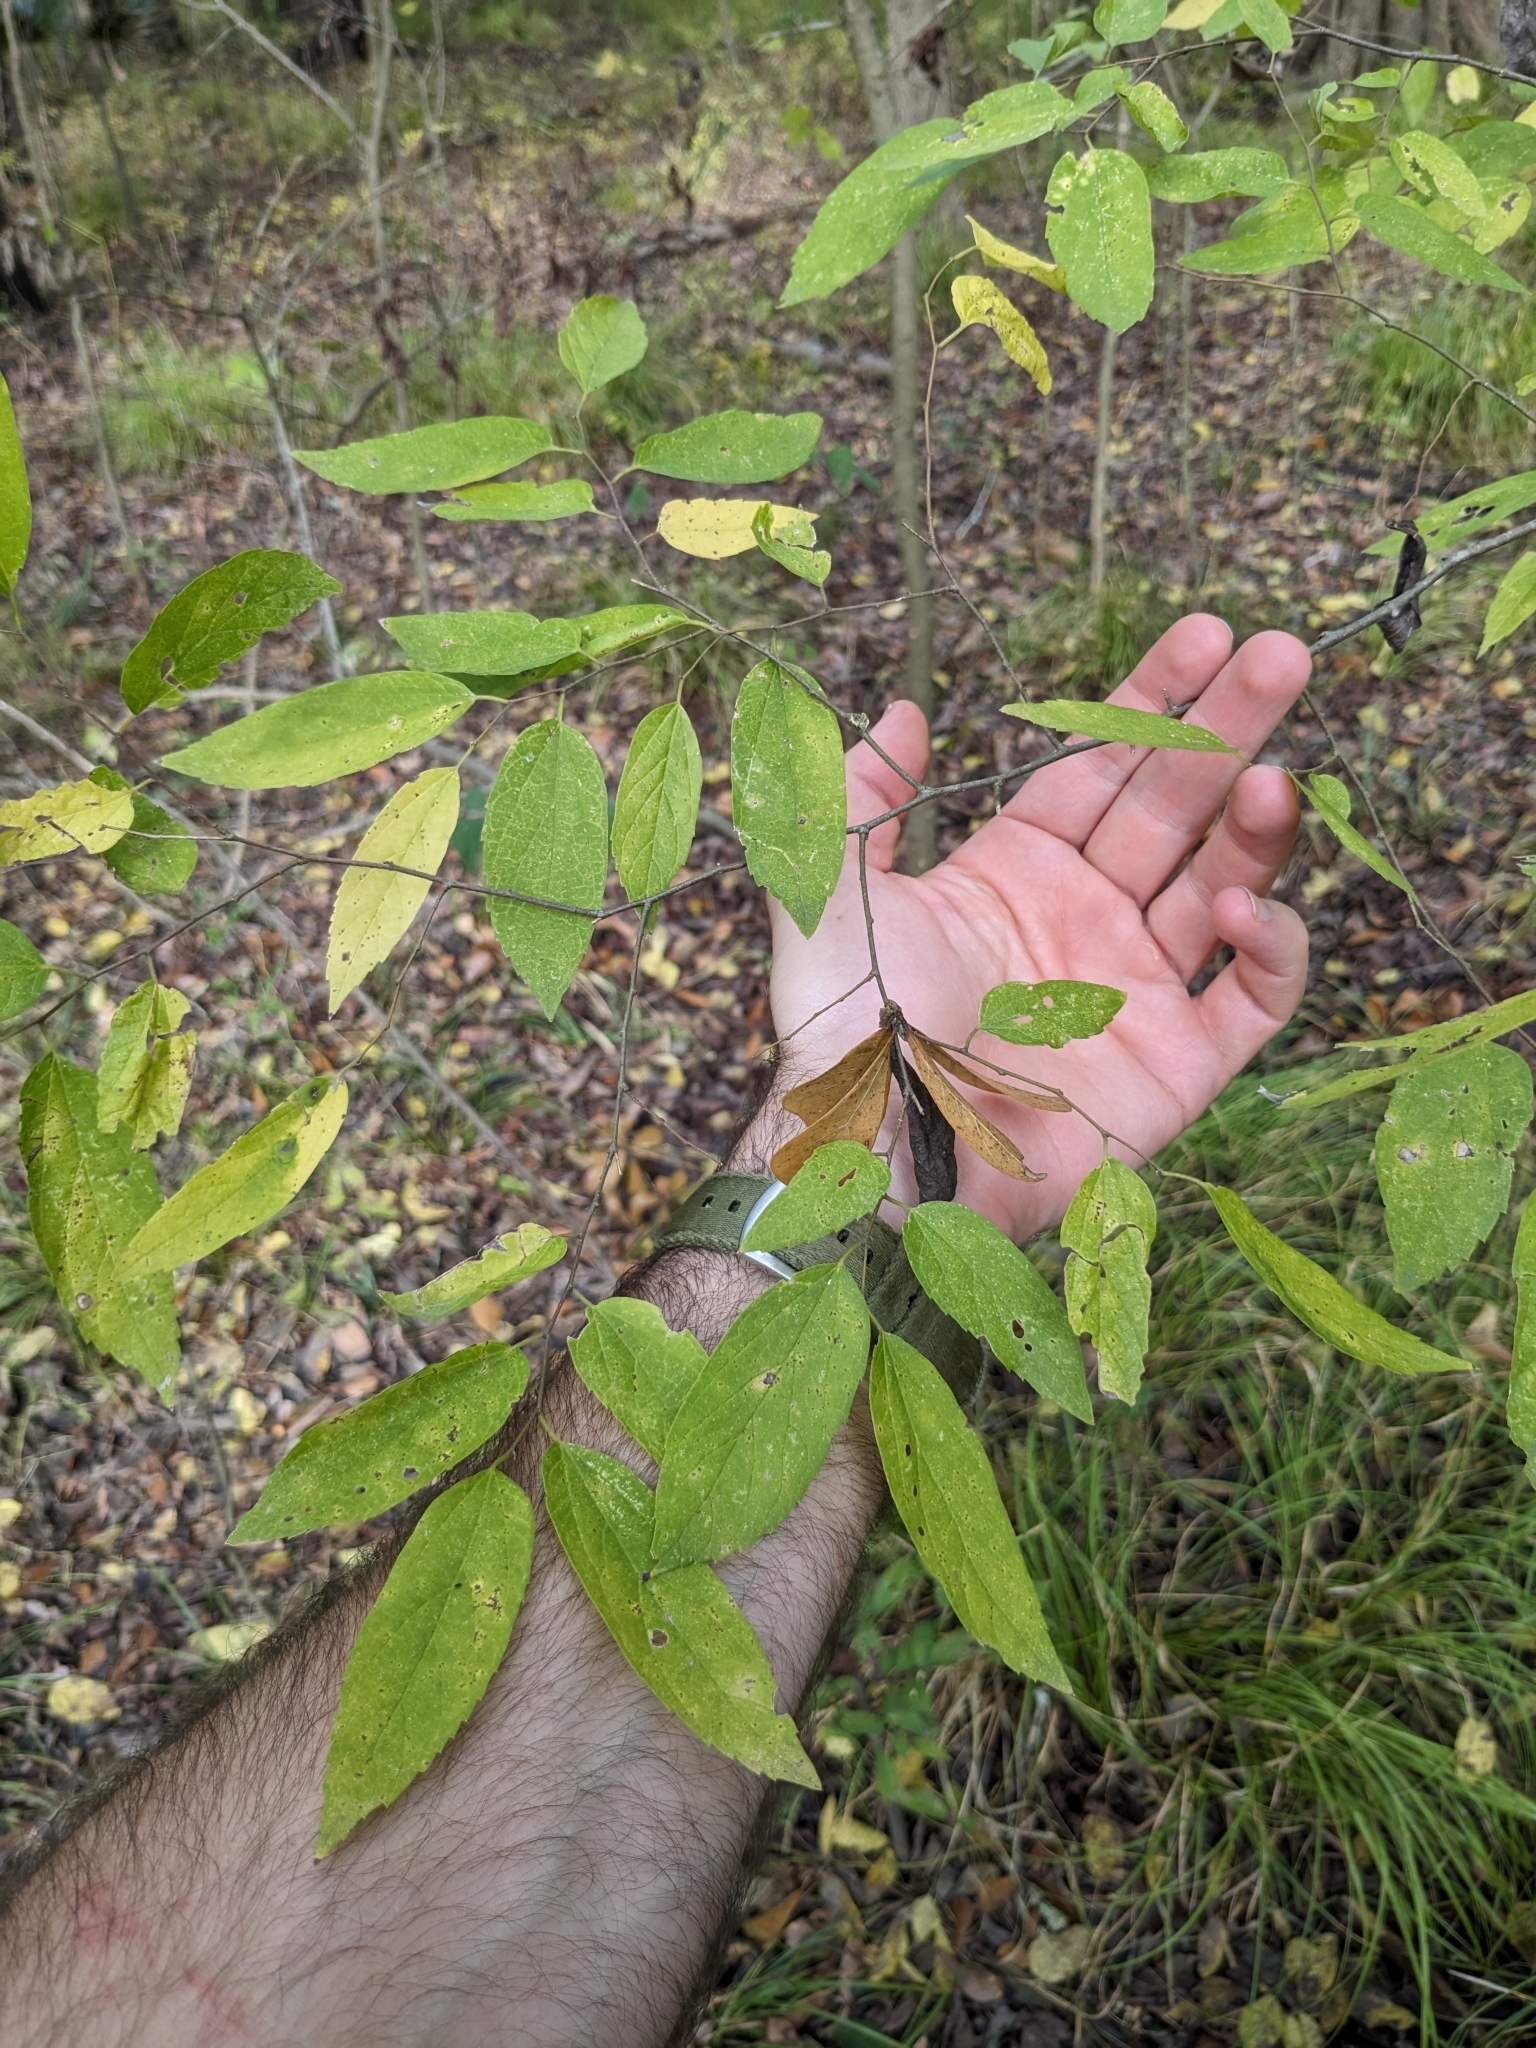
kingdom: Plantae
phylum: Tracheophyta
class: Magnoliopsida
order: Rosales
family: Cannabaceae
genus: Celtis
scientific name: Celtis laevigata
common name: Sugarberry
